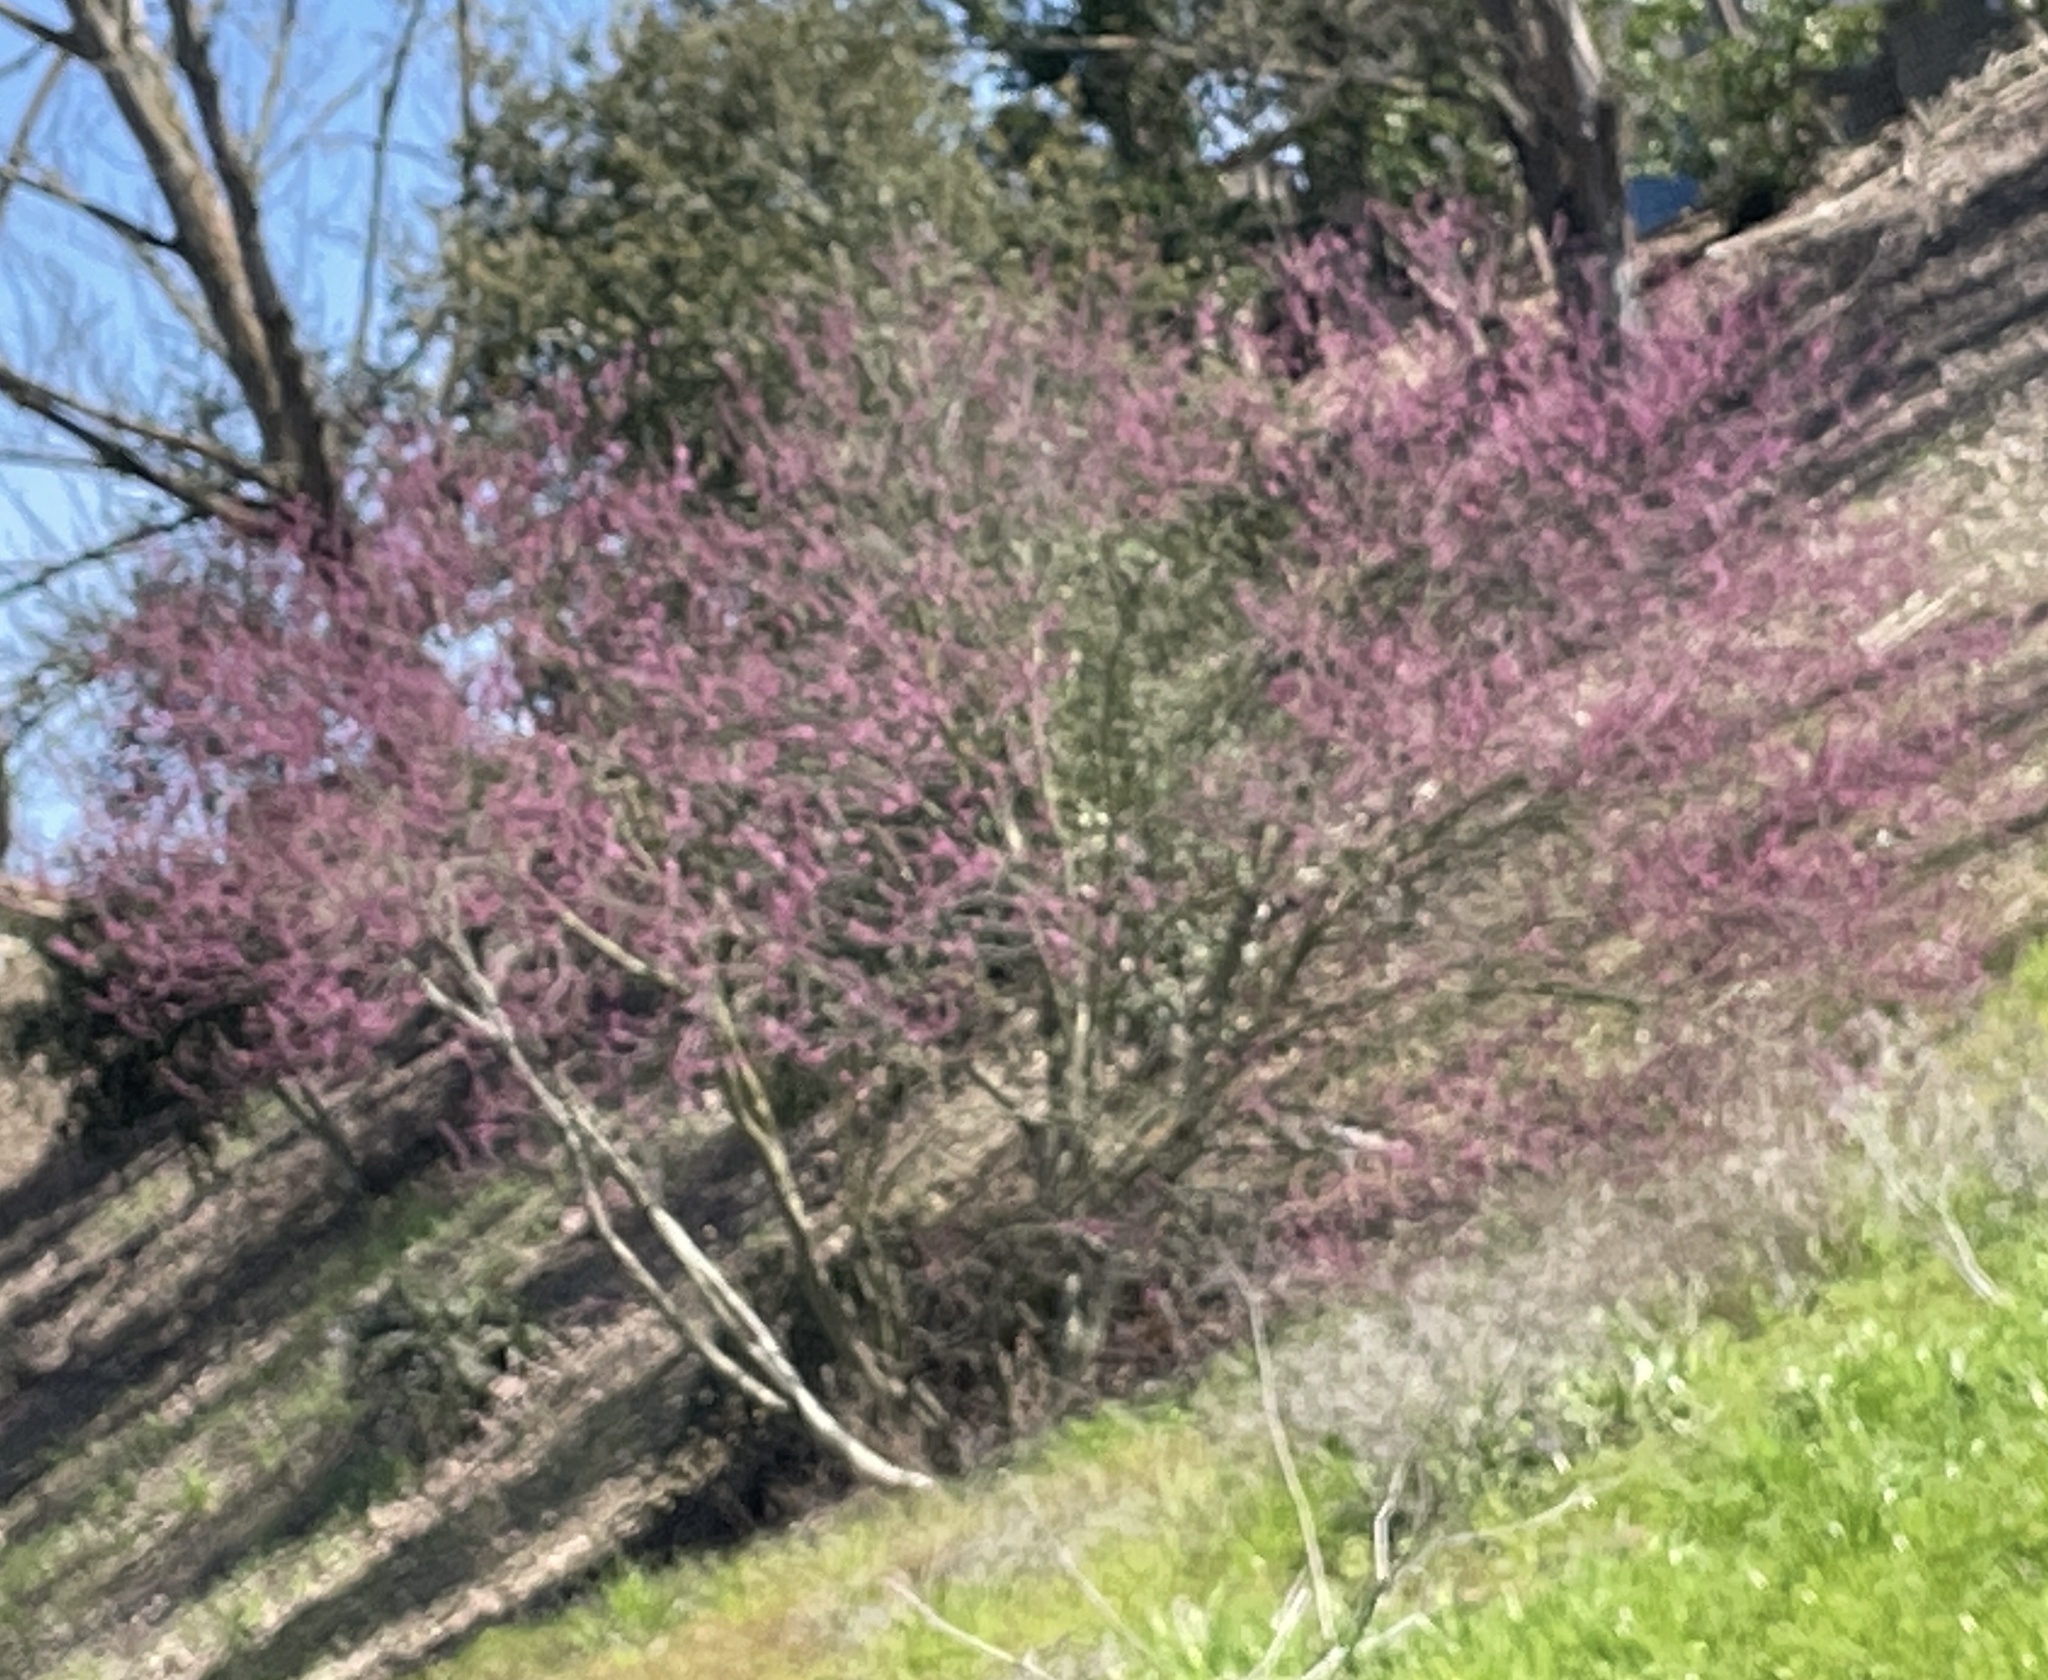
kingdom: Plantae
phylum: Tracheophyta
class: Magnoliopsida
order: Fabales
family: Fabaceae
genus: Cercis
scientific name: Cercis occidentalis
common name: California redbud
